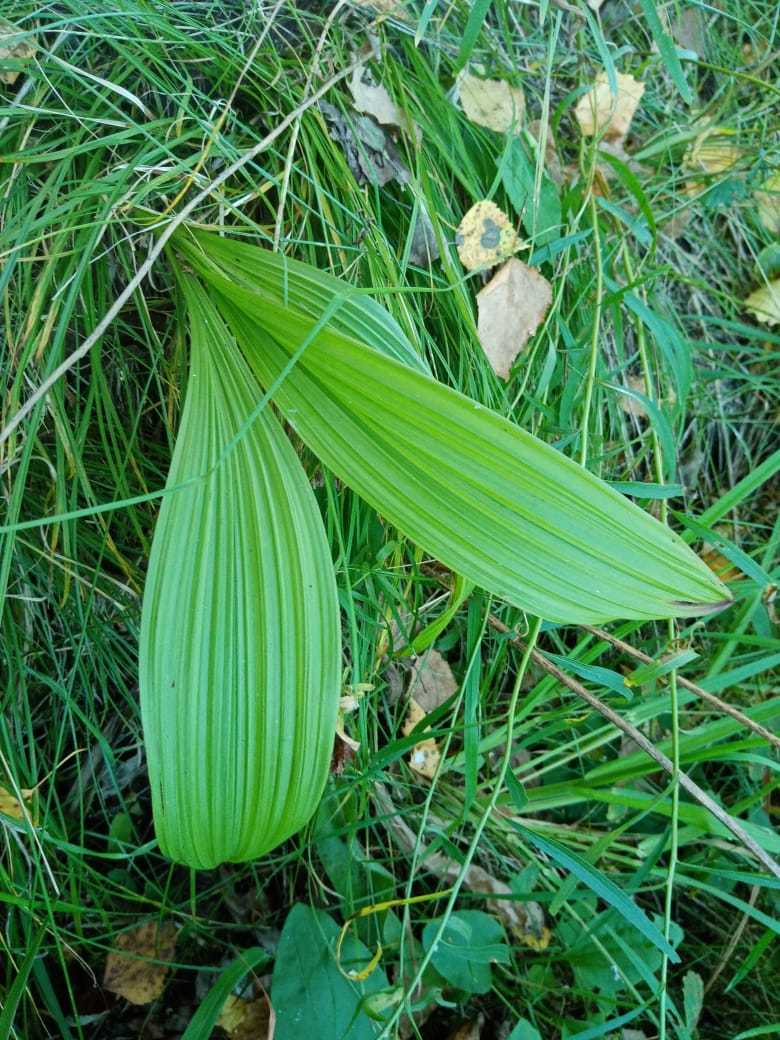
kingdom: Plantae
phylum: Tracheophyta
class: Liliopsida
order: Liliales
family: Melanthiaceae
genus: Veratrum
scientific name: Veratrum nigrum
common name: Black veratrum
